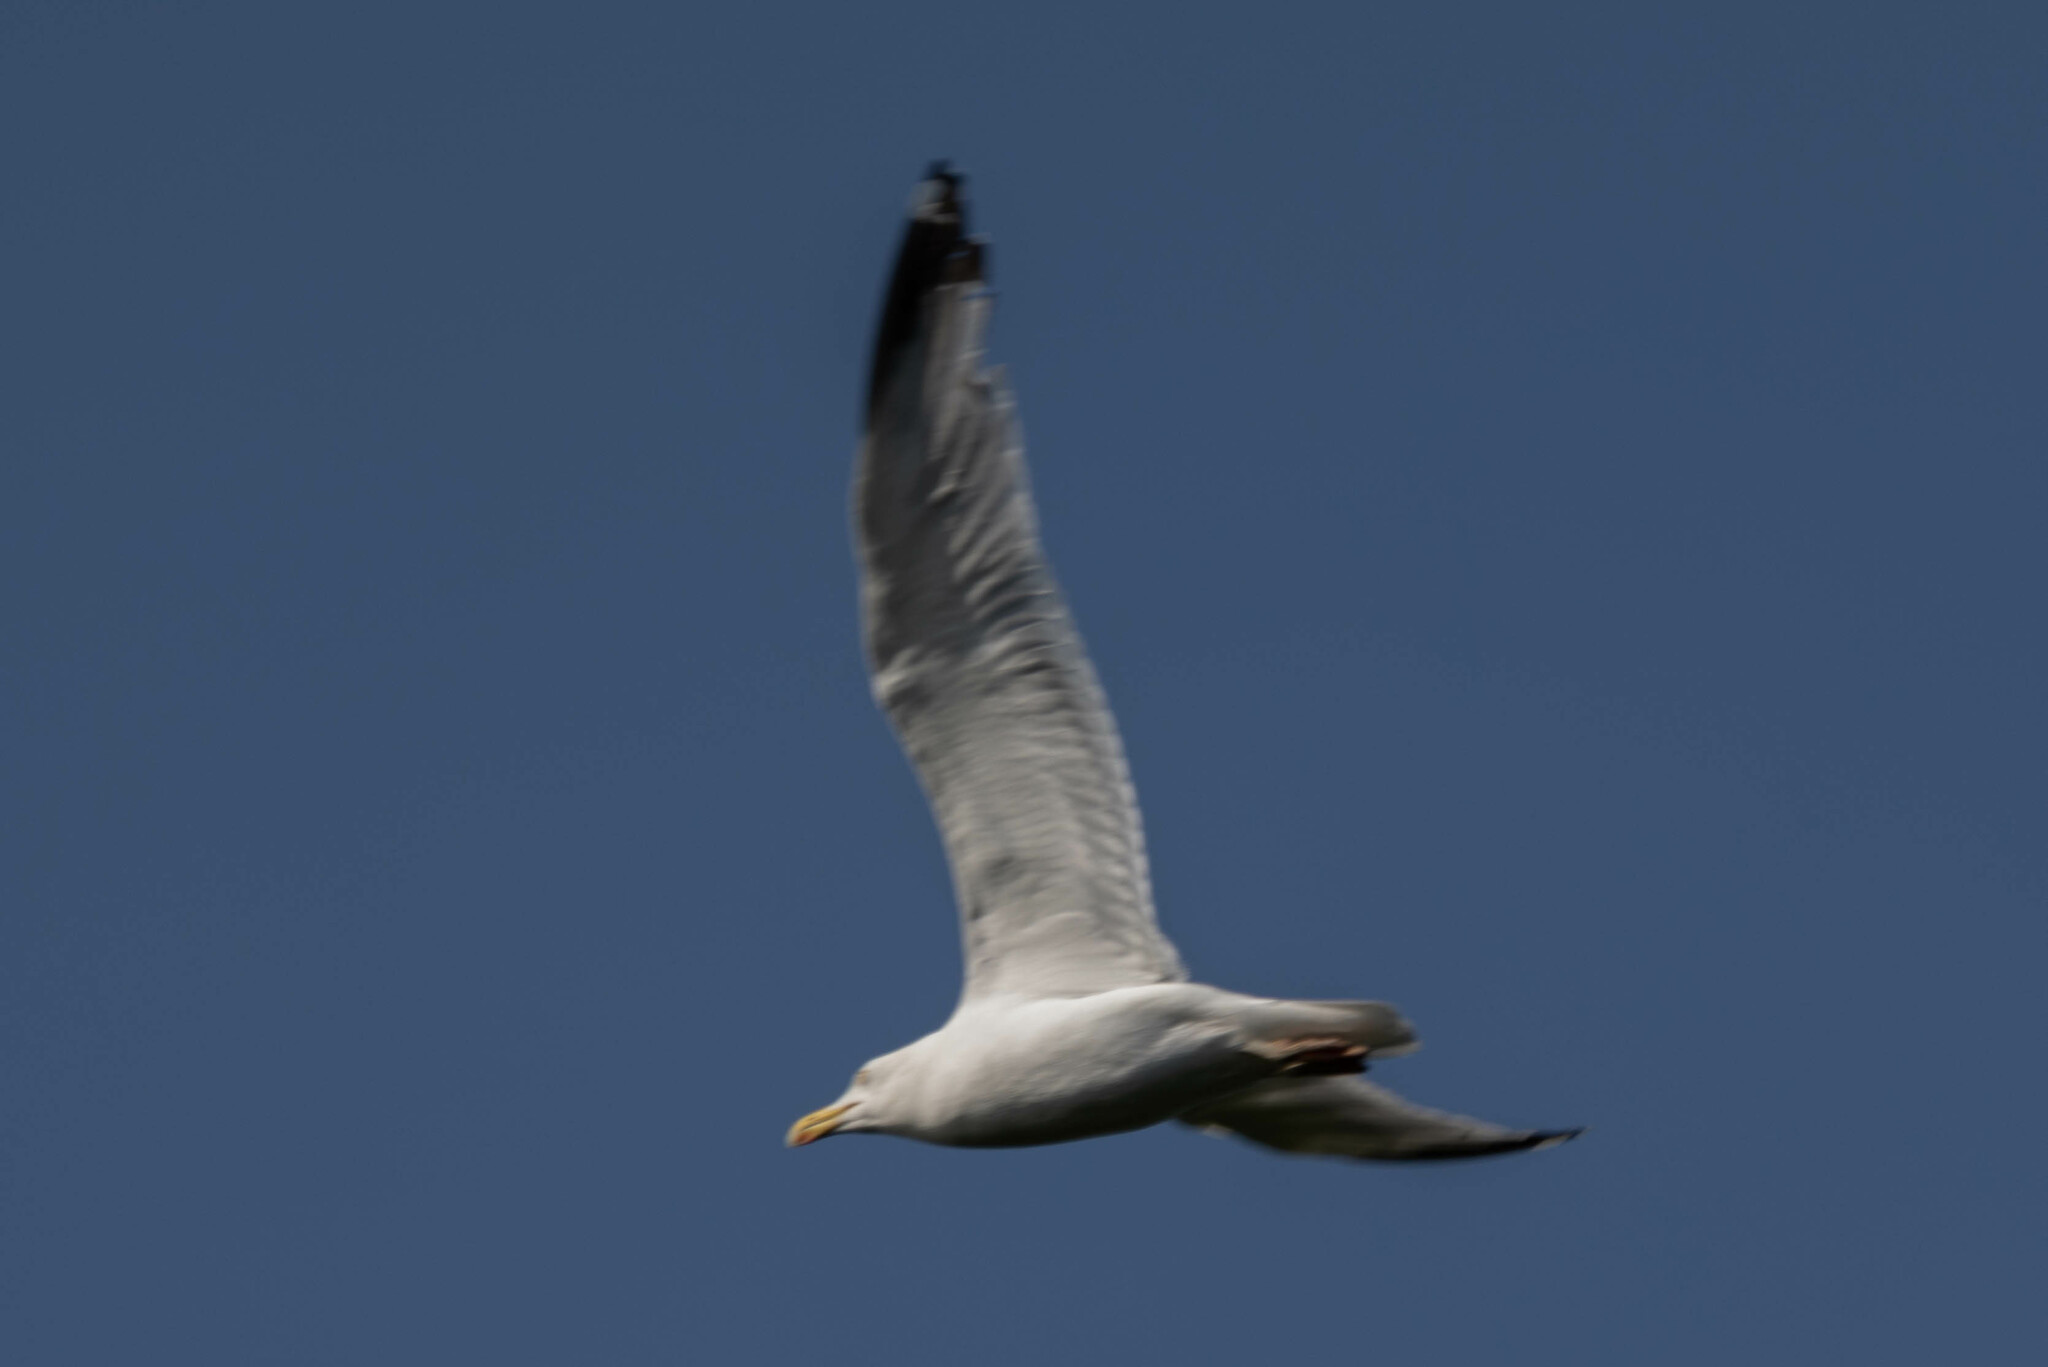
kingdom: Animalia
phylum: Chordata
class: Aves
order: Charadriiformes
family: Laridae
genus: Larus
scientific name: Larus argentatus
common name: Herring gull
